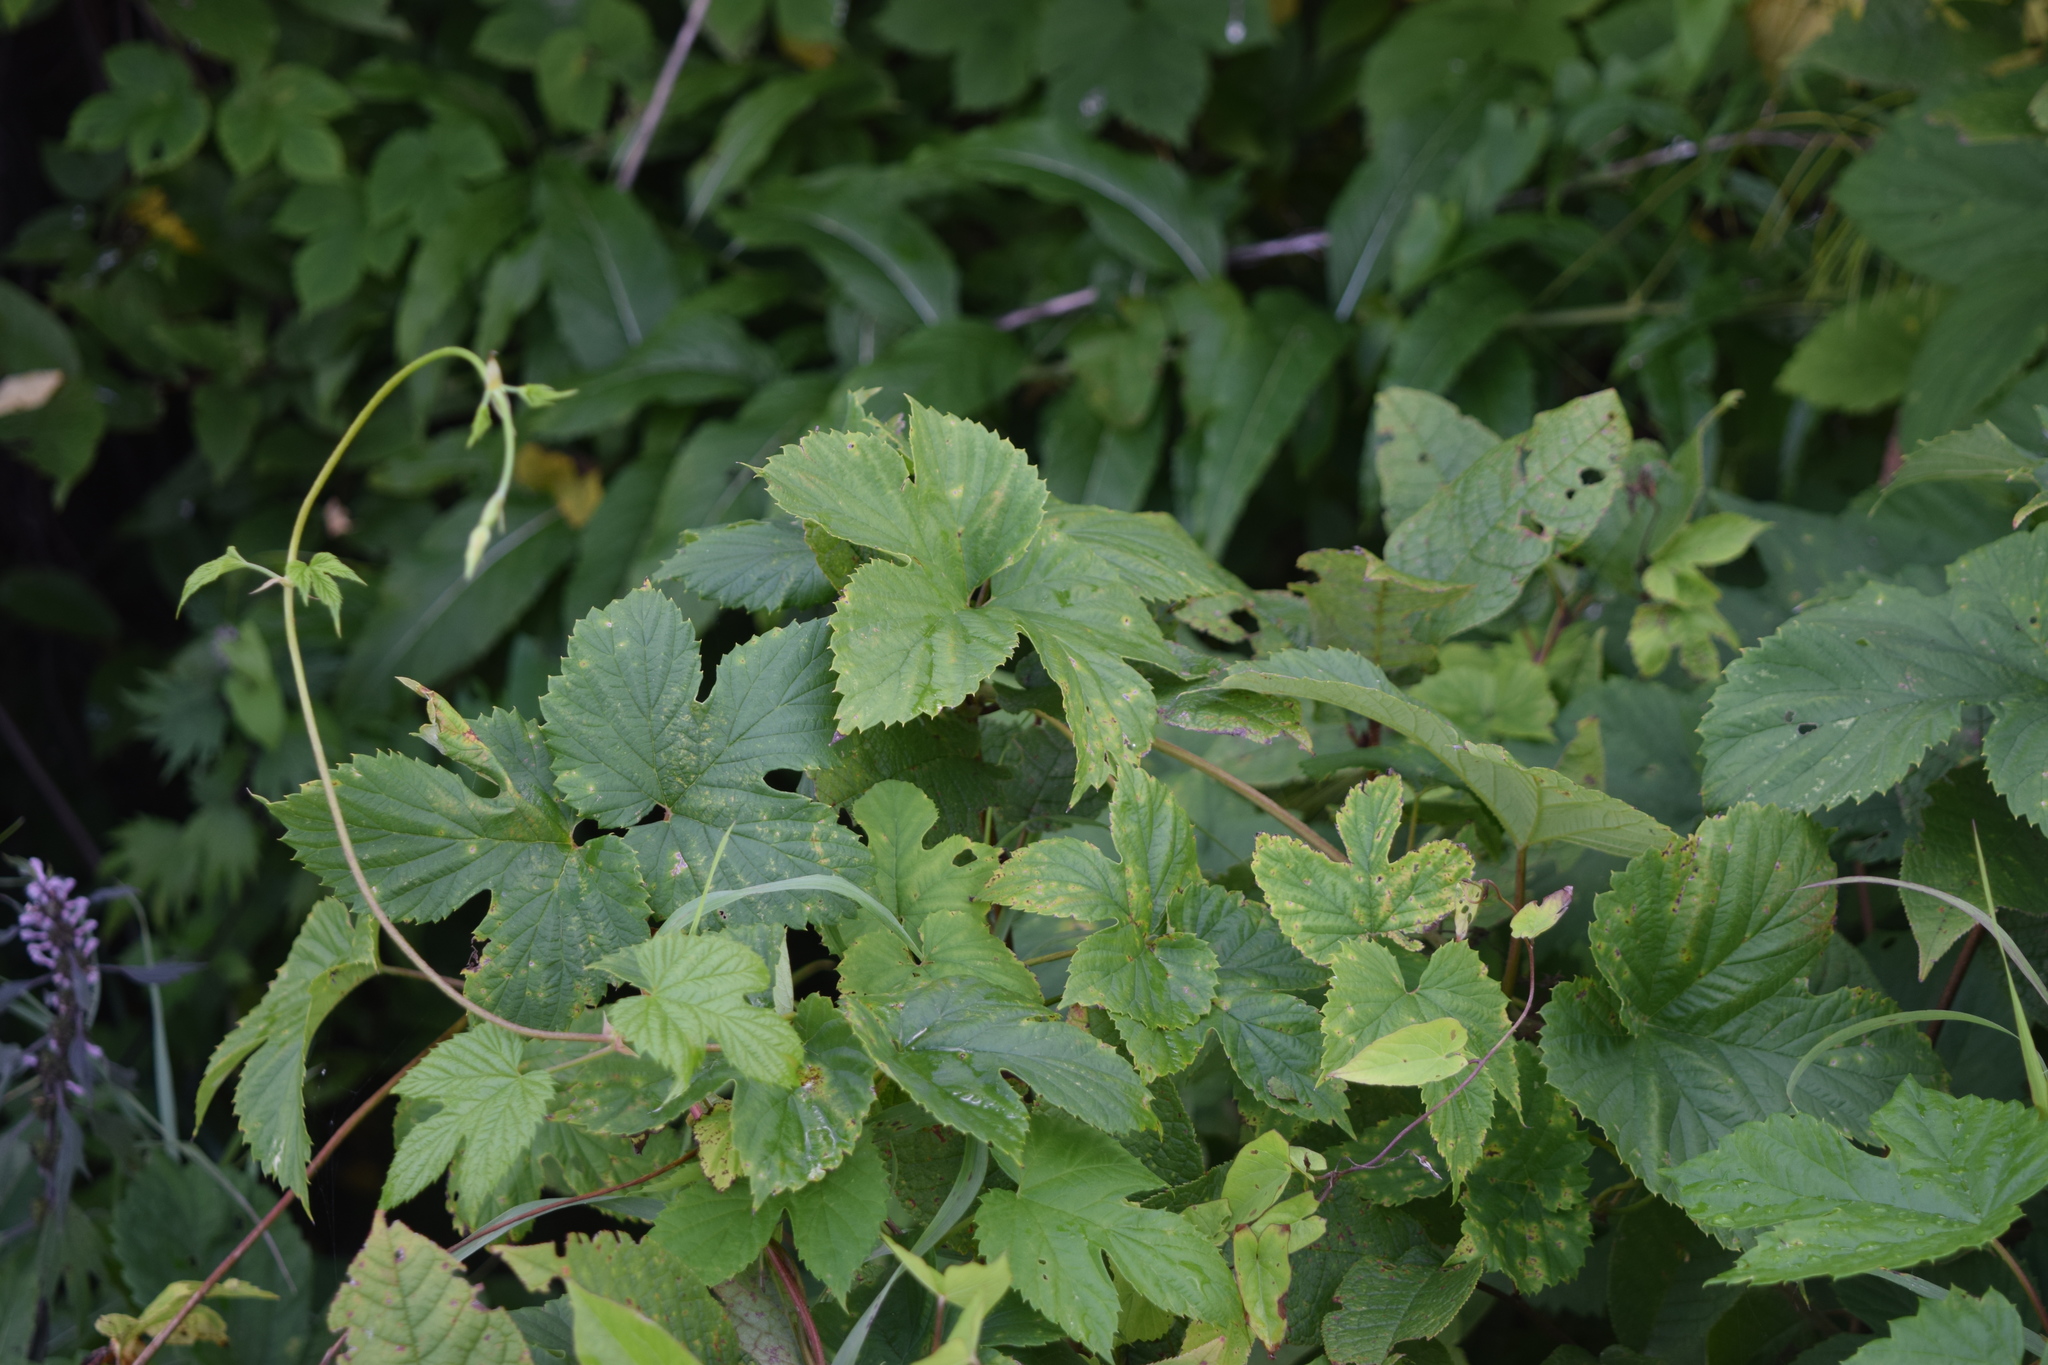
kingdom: Plantae
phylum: Tracheophyta
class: Magnoliopsida
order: Rosales
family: Cannabaceae
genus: Humulus
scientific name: Humulus lupulus
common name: Hop
